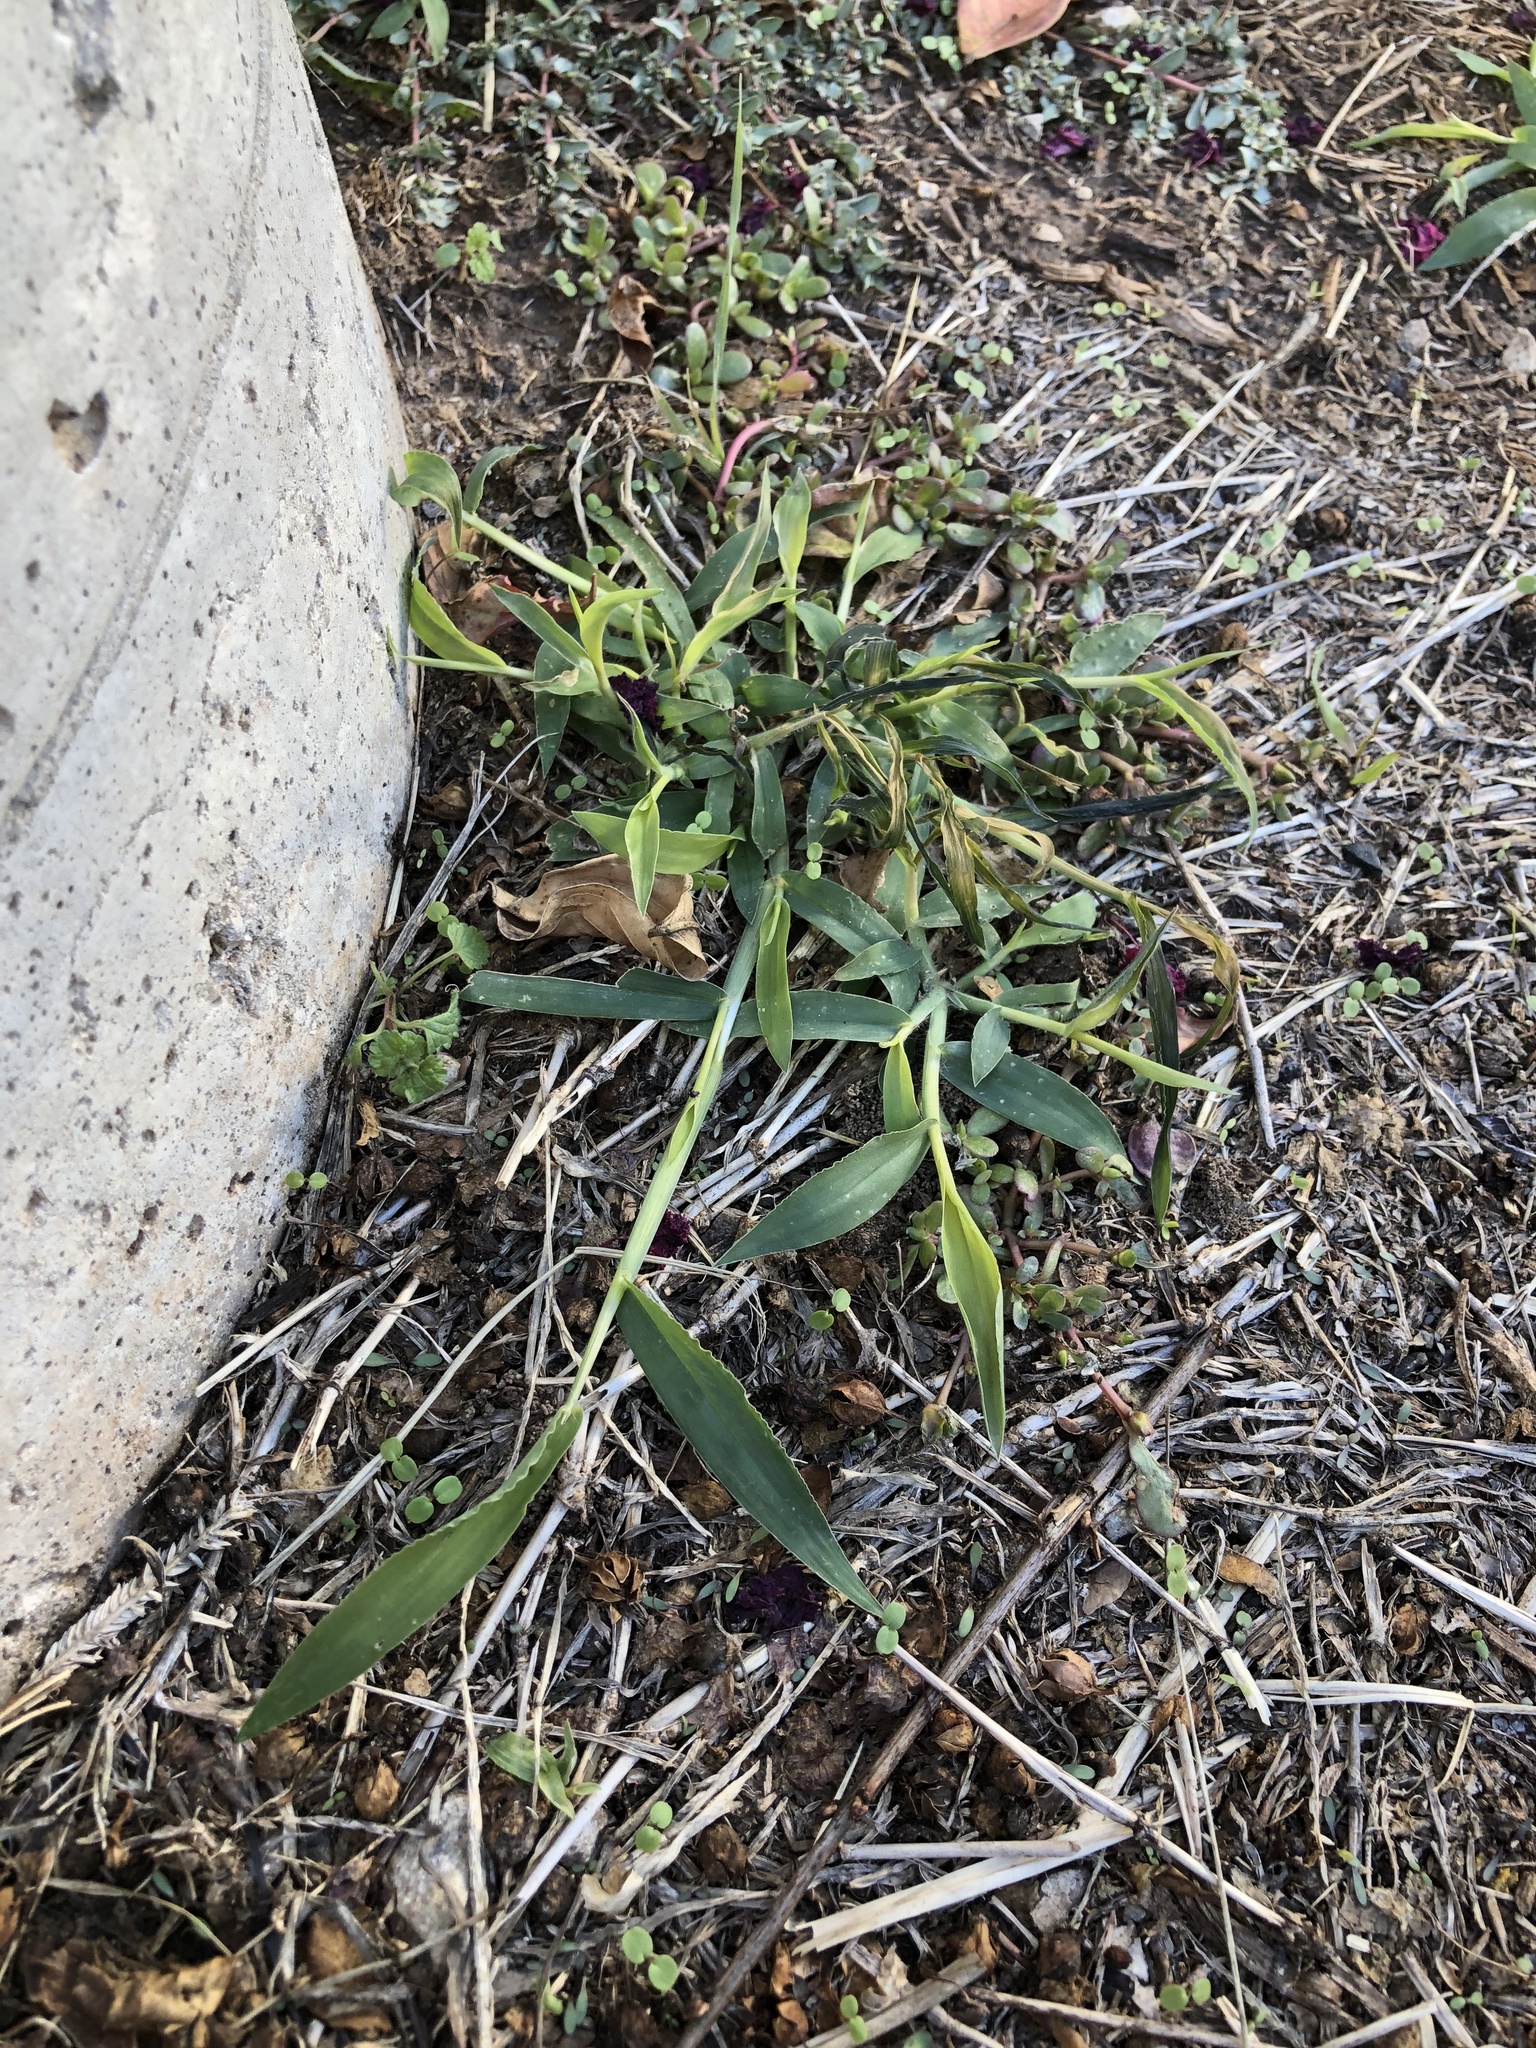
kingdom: Plantae
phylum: Tracheophyta
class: Liliopsida
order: Poales
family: Poaceae
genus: Digitaria
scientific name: Digitaria sanguinalis
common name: Hairy crabgrass
